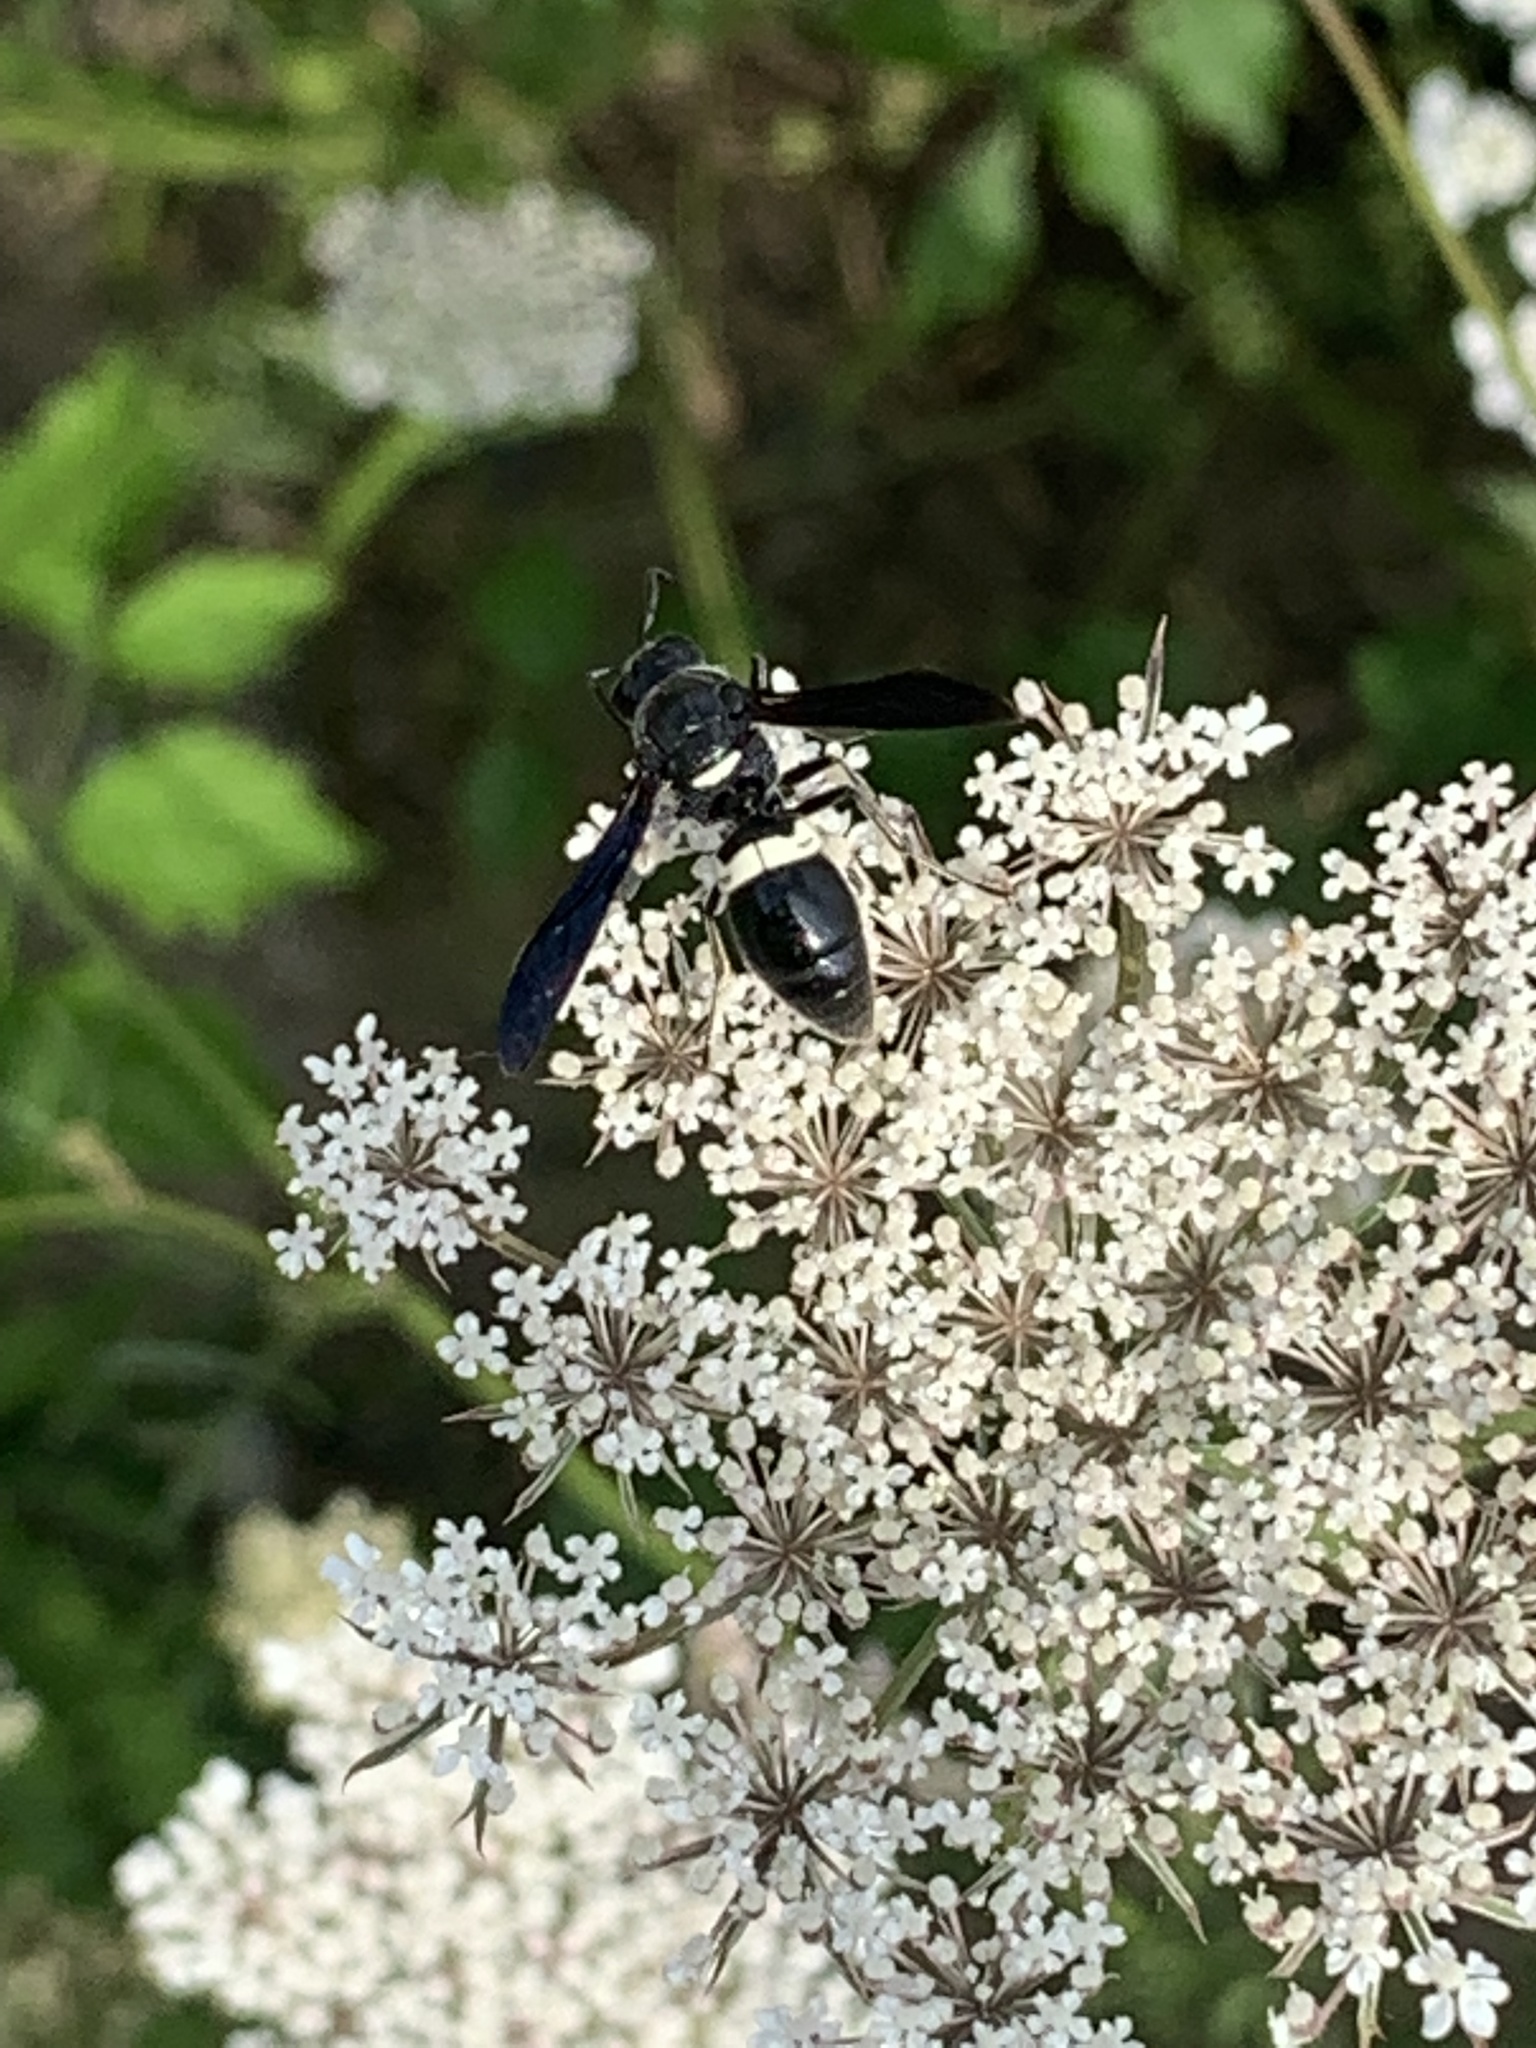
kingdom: Animalia
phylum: Arthropoda
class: Insecta
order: Hymenoptera
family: Eumenidae
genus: Monobia
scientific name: Monobia quadridens
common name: Four-toothed mason wasp
